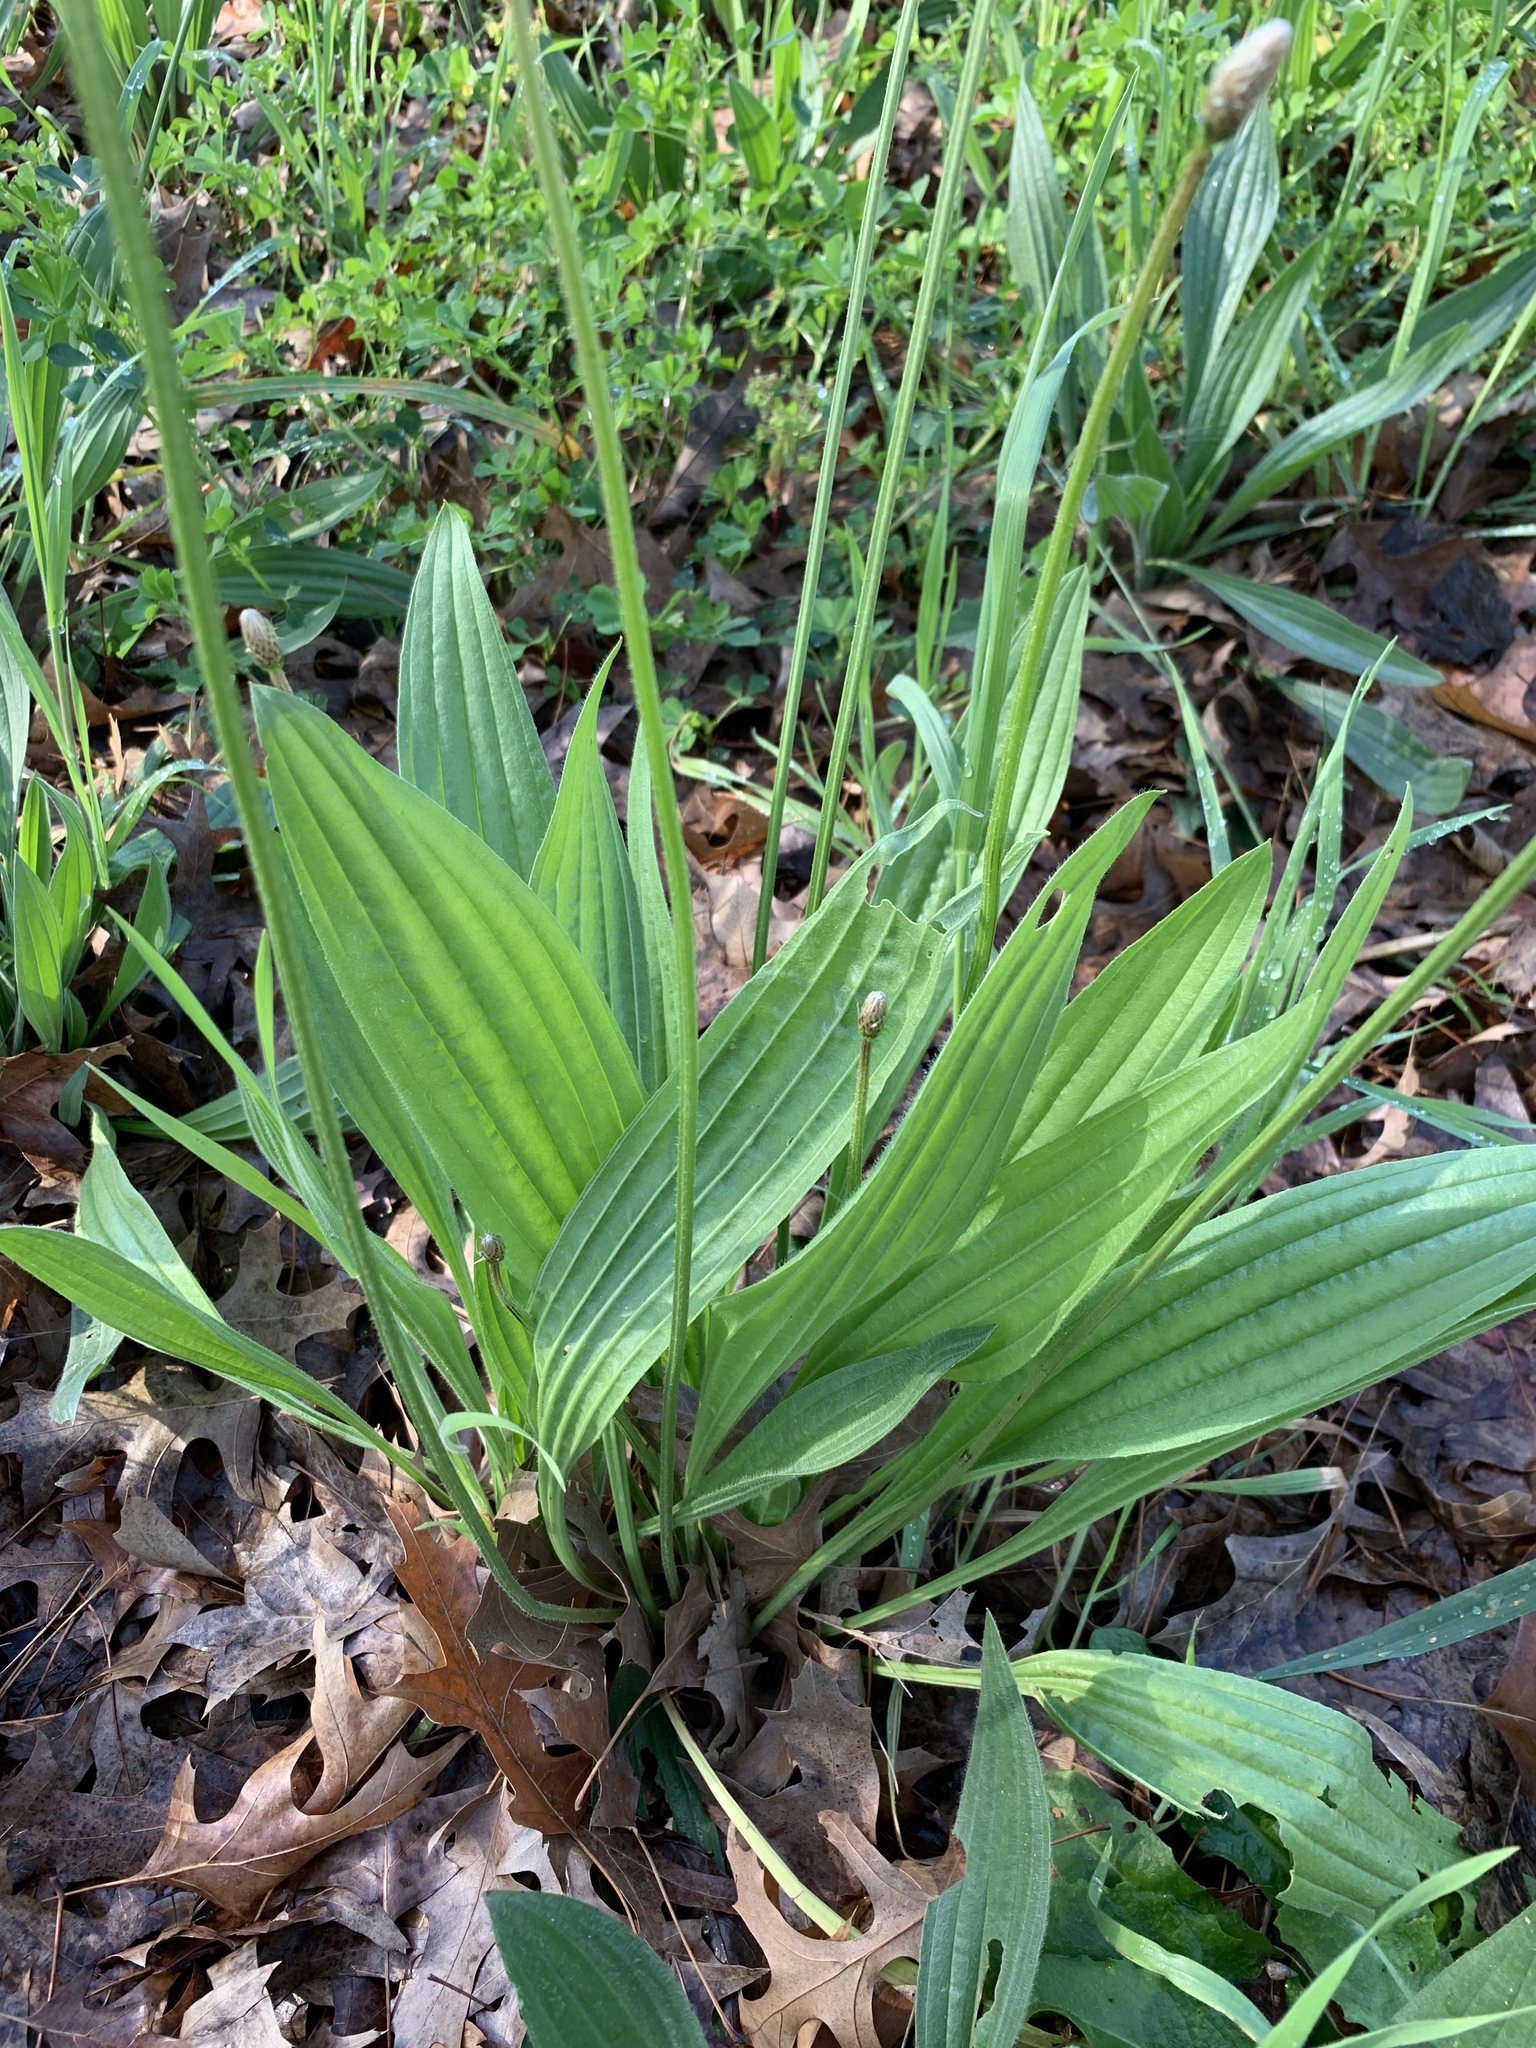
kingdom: Plantae
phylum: Tracheophyta
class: Magnoliopsida
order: Lamiales
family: Plantaginaceae
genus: Plantago
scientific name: Plantago lanceolata
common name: Ribwort plantain
